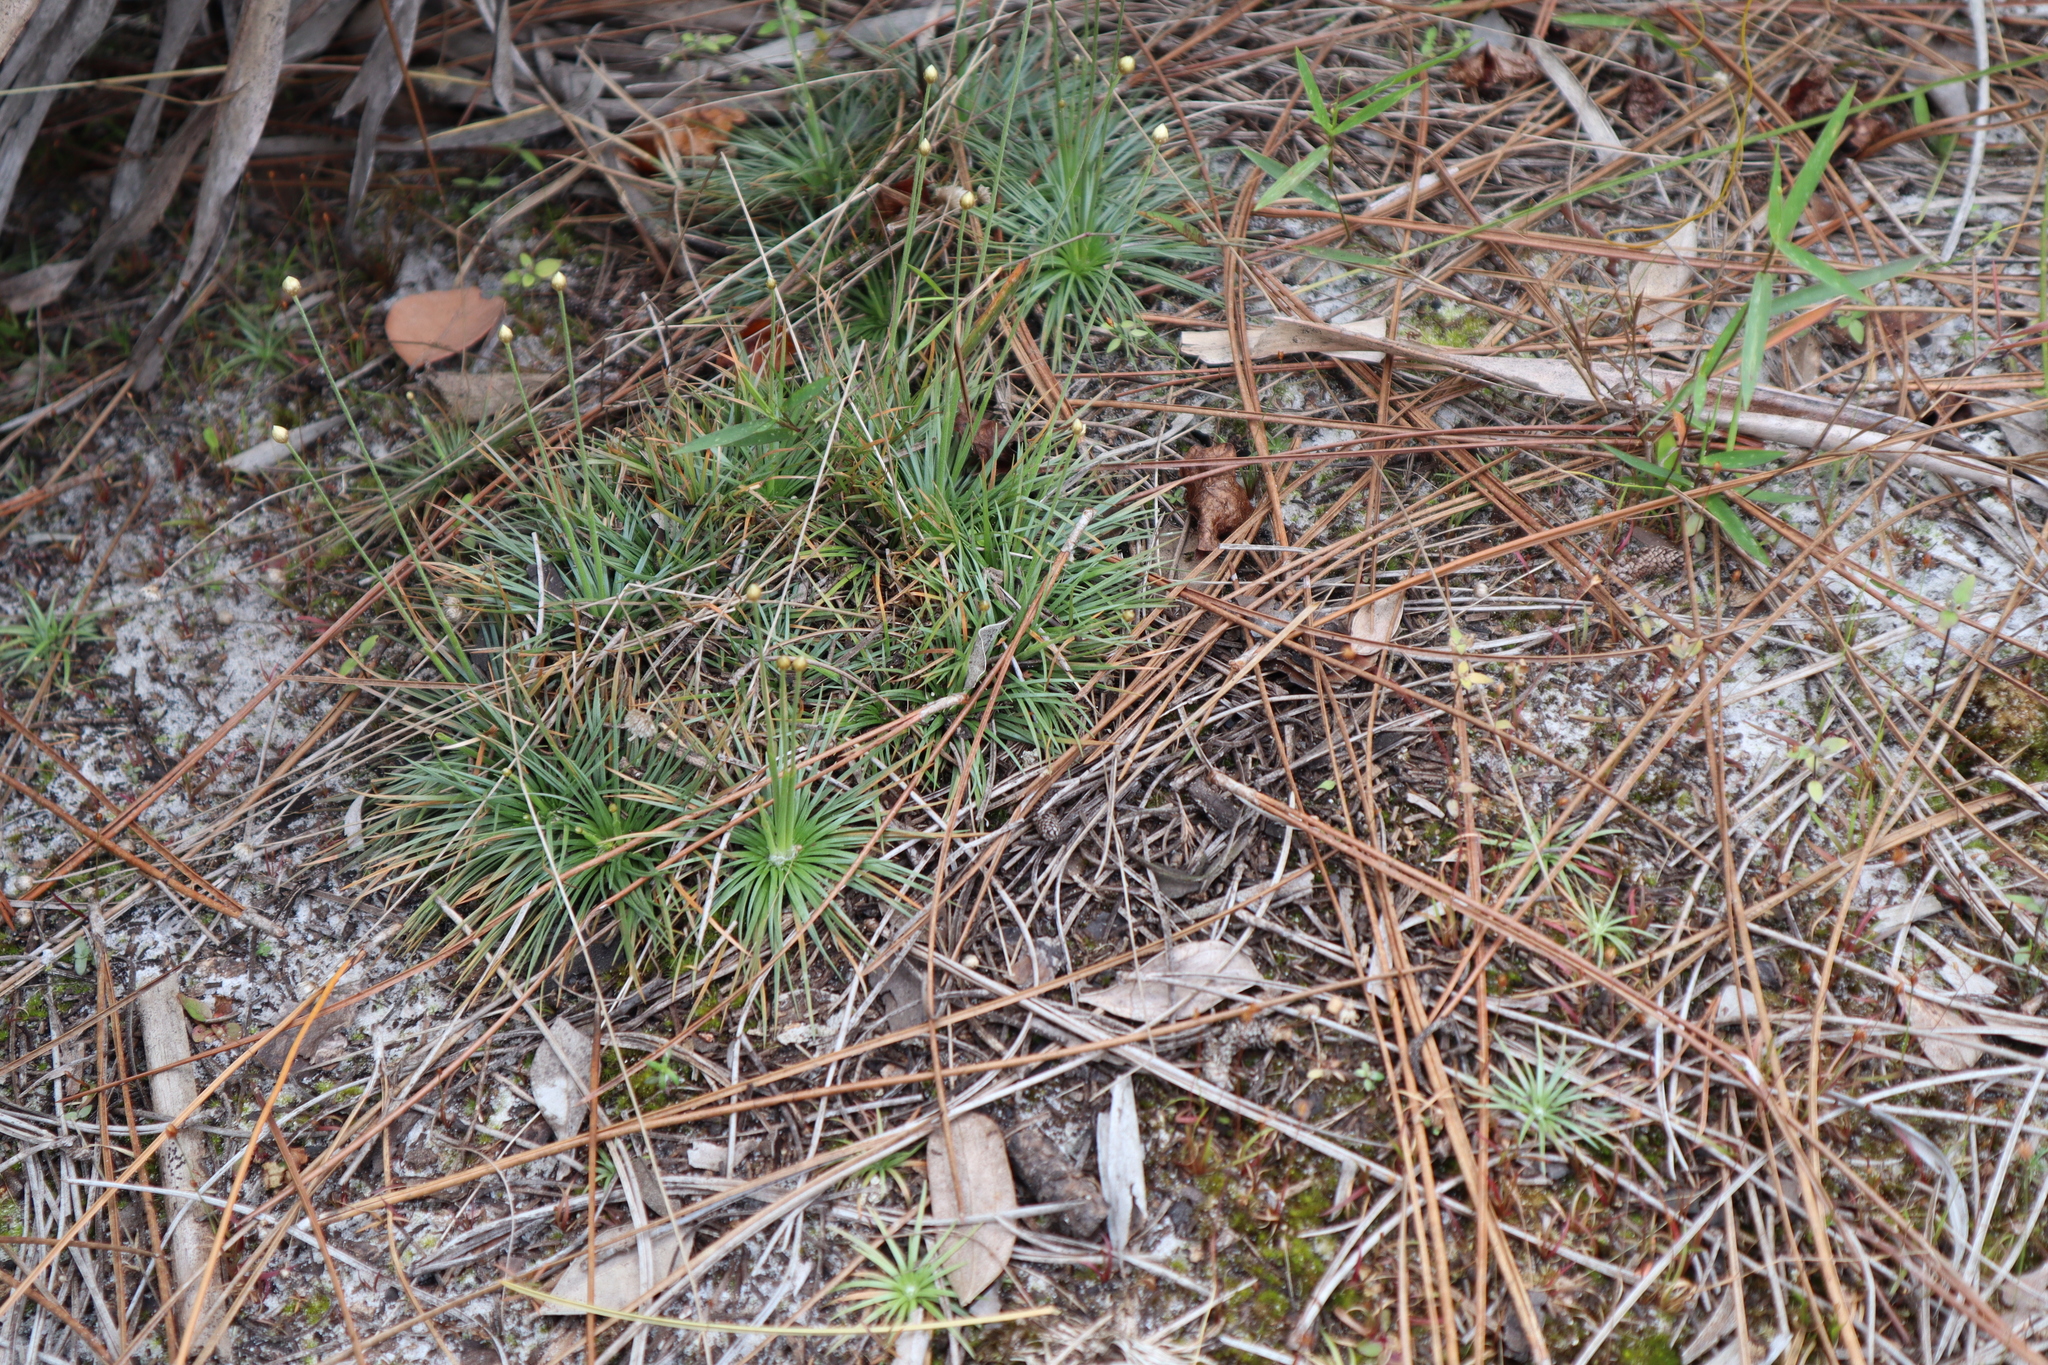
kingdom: Plantae
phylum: Tracheophyta
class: Liliopsida
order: Poales
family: Eriocaulaceae
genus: Syngonanthus
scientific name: Syngonanthus flavidulus
